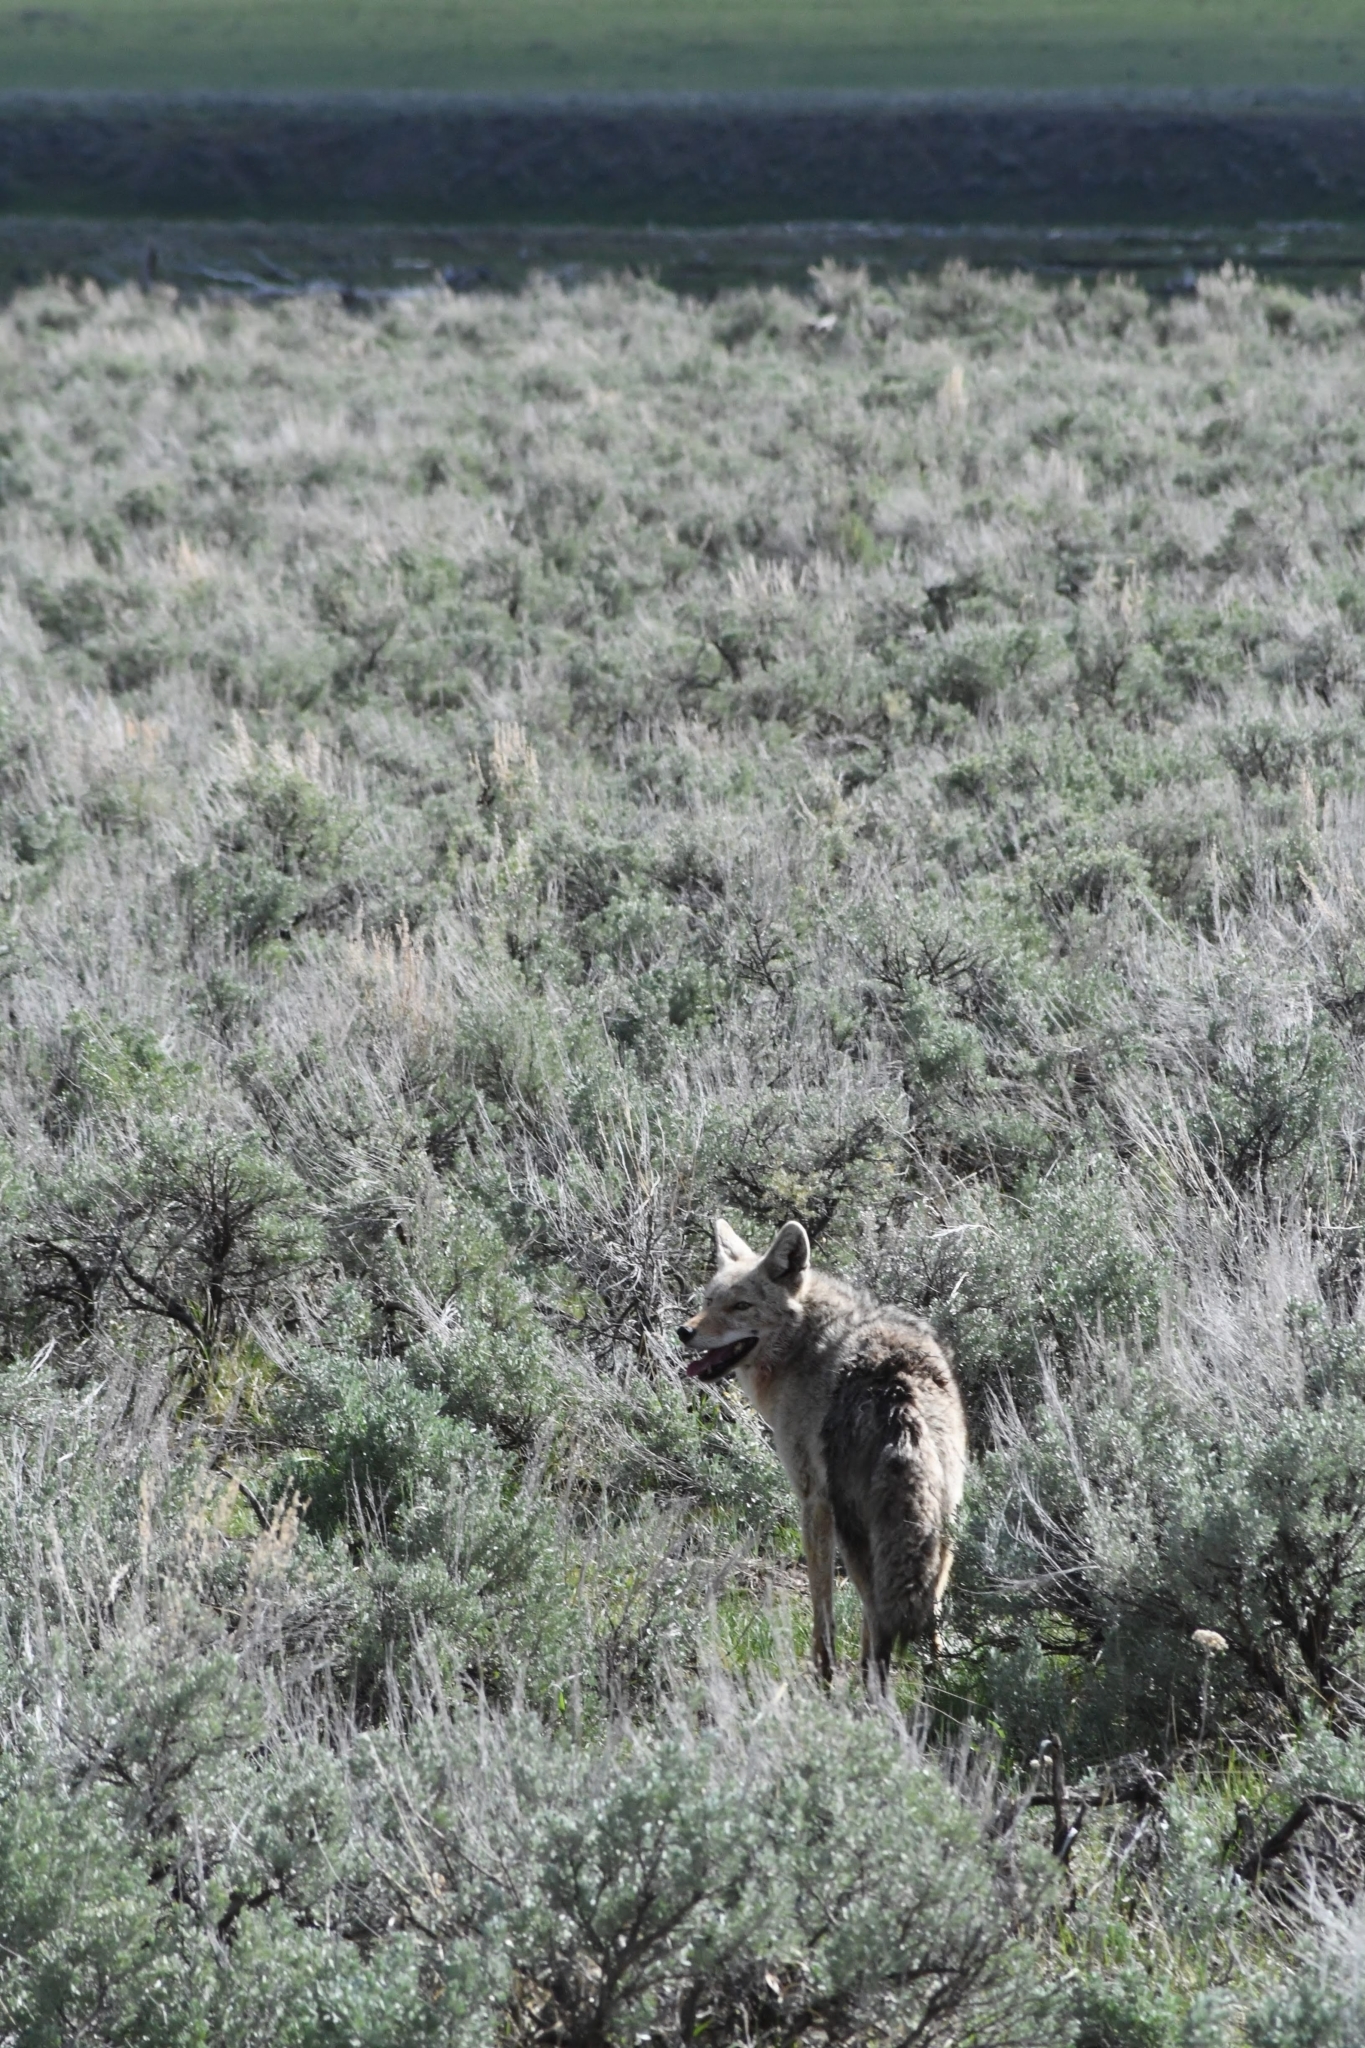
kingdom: Animalia
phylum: Chordata
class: Mammalia
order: Carnivora
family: Canidae
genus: Canis
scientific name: Canis latrans
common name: Coyote
